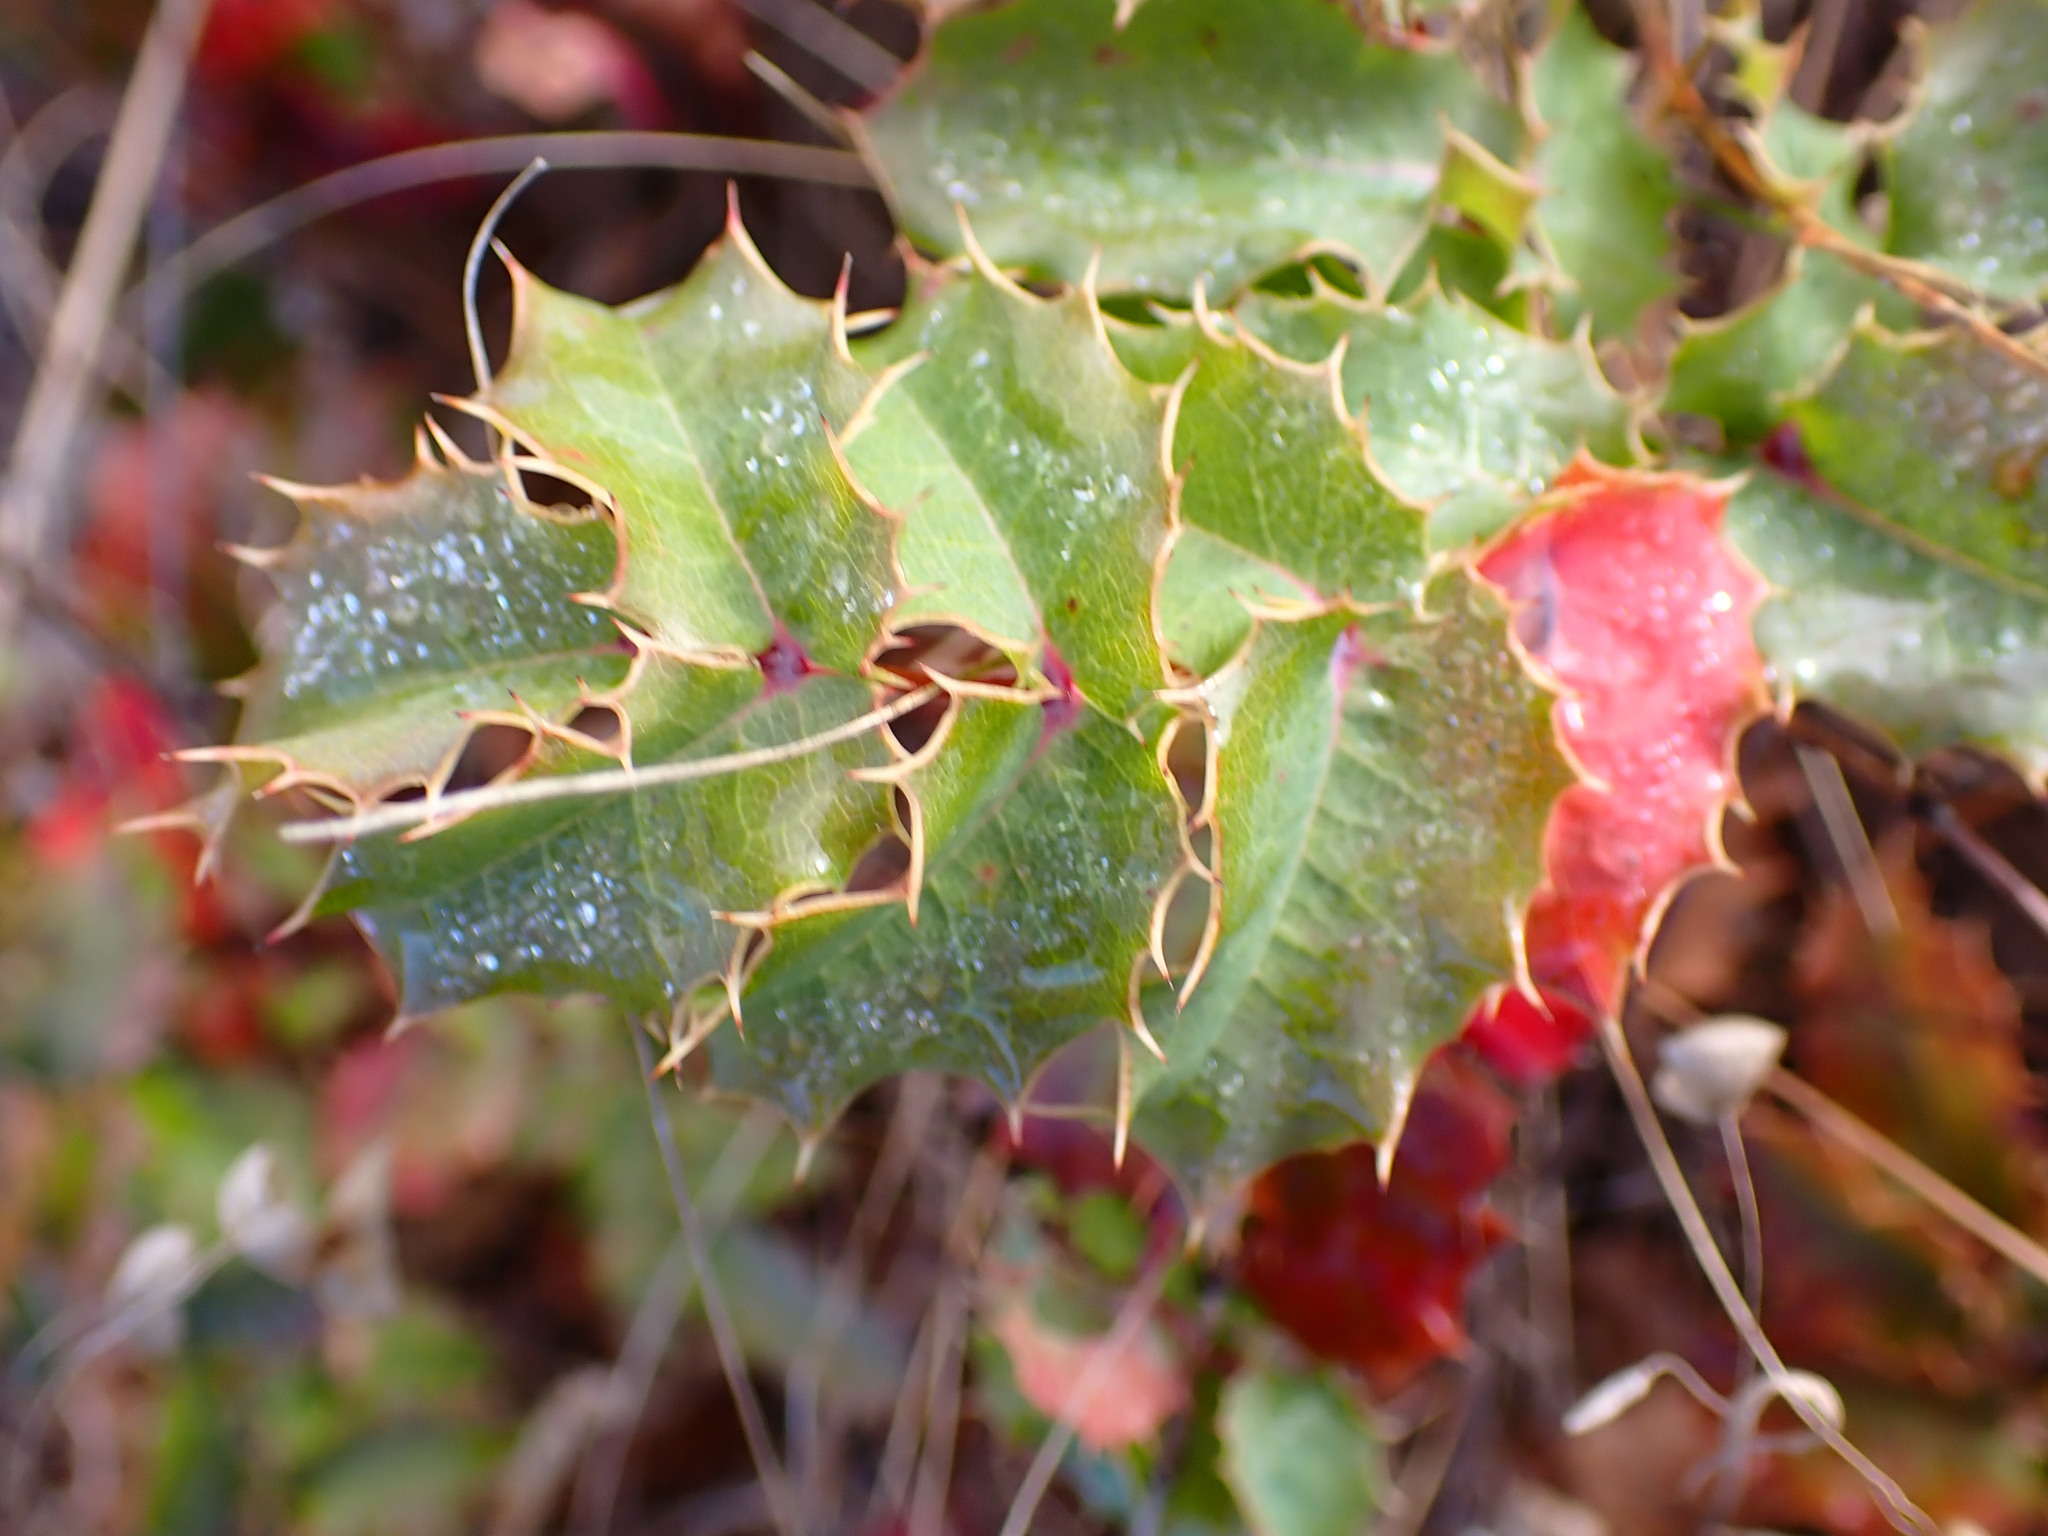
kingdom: Plantae
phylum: Tracheophyta
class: Magnoliopsida
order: Ranunculales
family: Berberidaceae
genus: Mahonia
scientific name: Mahonia
